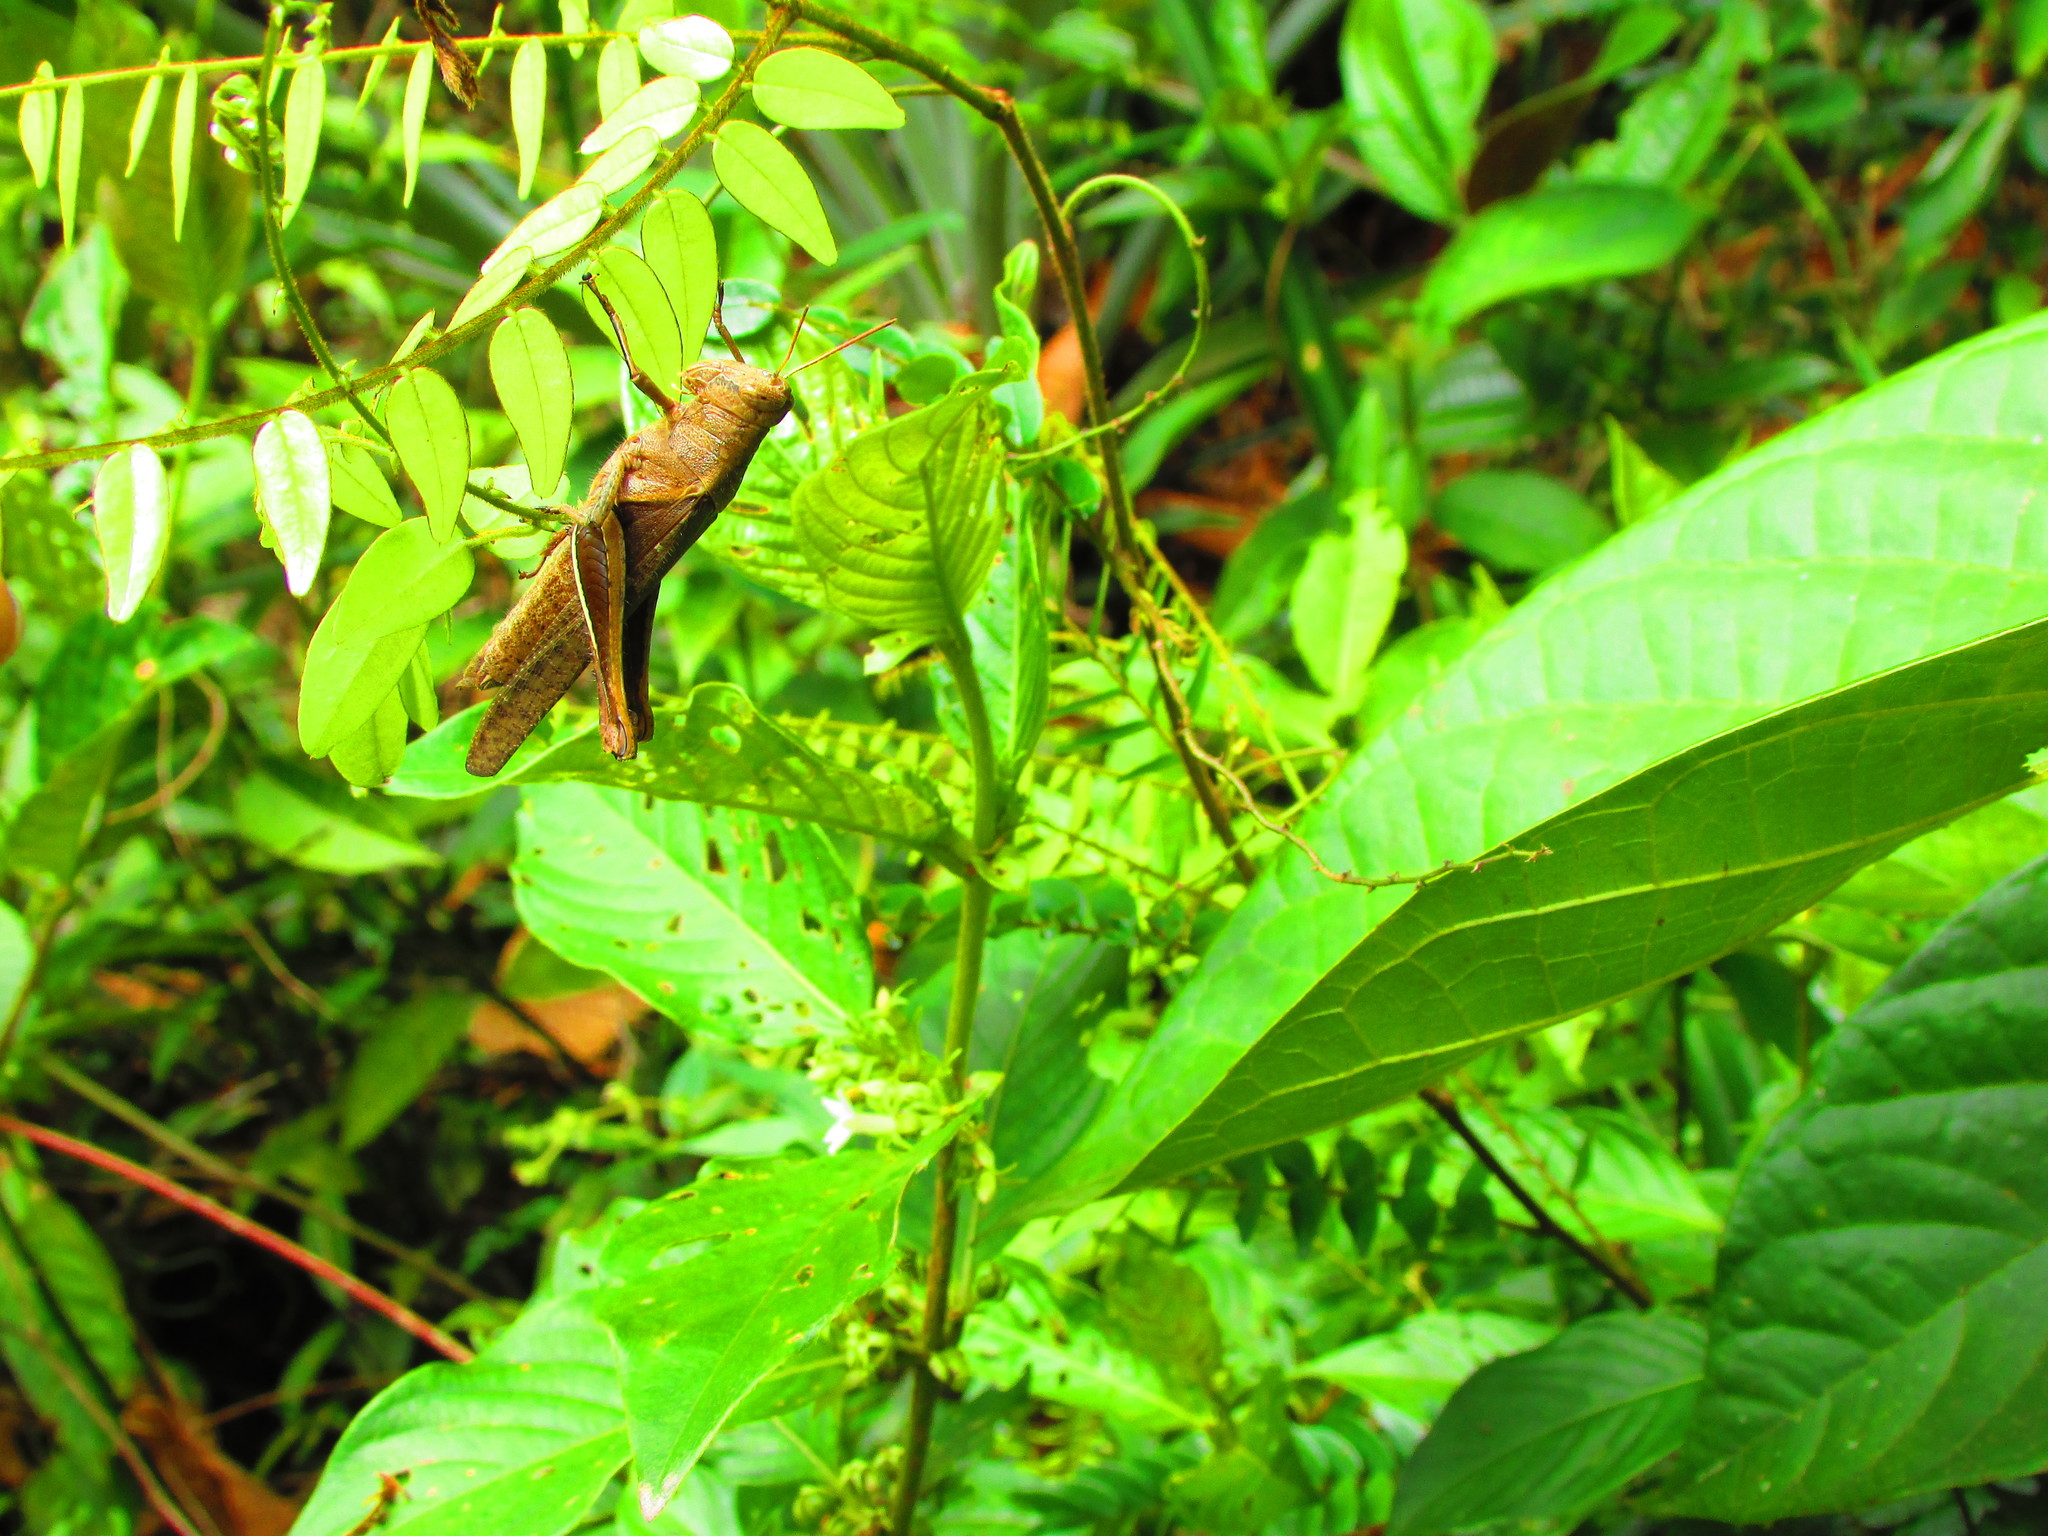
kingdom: Animalia
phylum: Arthropoda
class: Insecta
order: Orthoptera
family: Acrididae
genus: Abracris
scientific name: Abracris flavolineata
